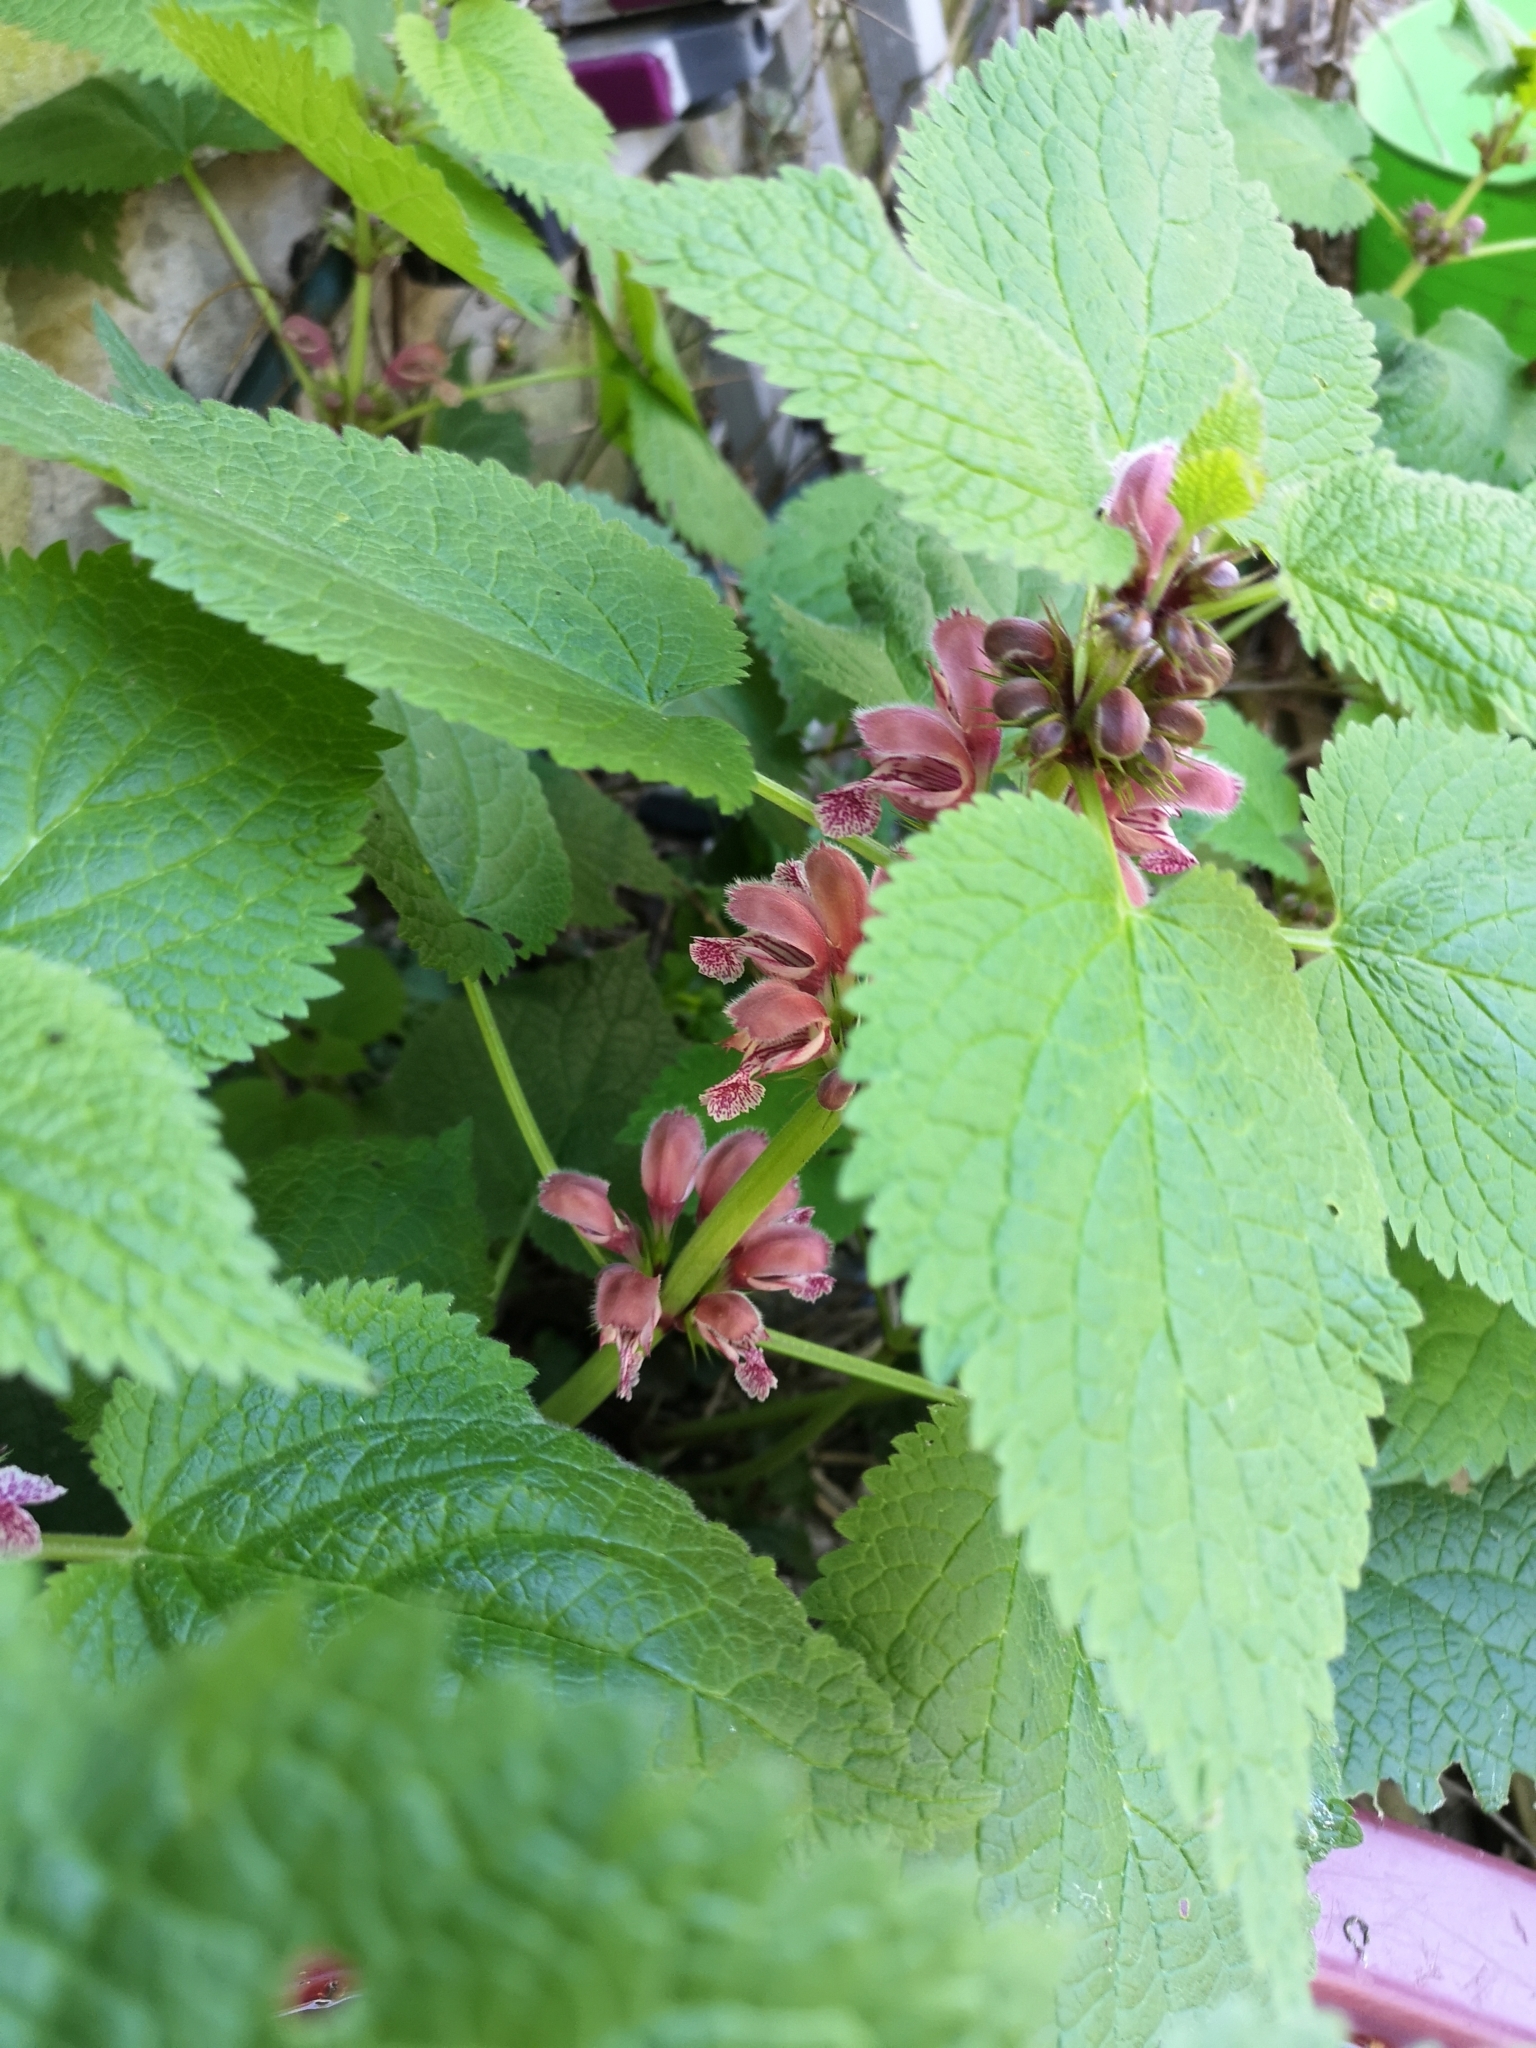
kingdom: Plantae
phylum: Tracheophyta
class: Magnoliopsida
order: Lamiales
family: Lamiaceae
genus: Lamium
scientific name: Lamium orvala
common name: Balm-leaved archangel
